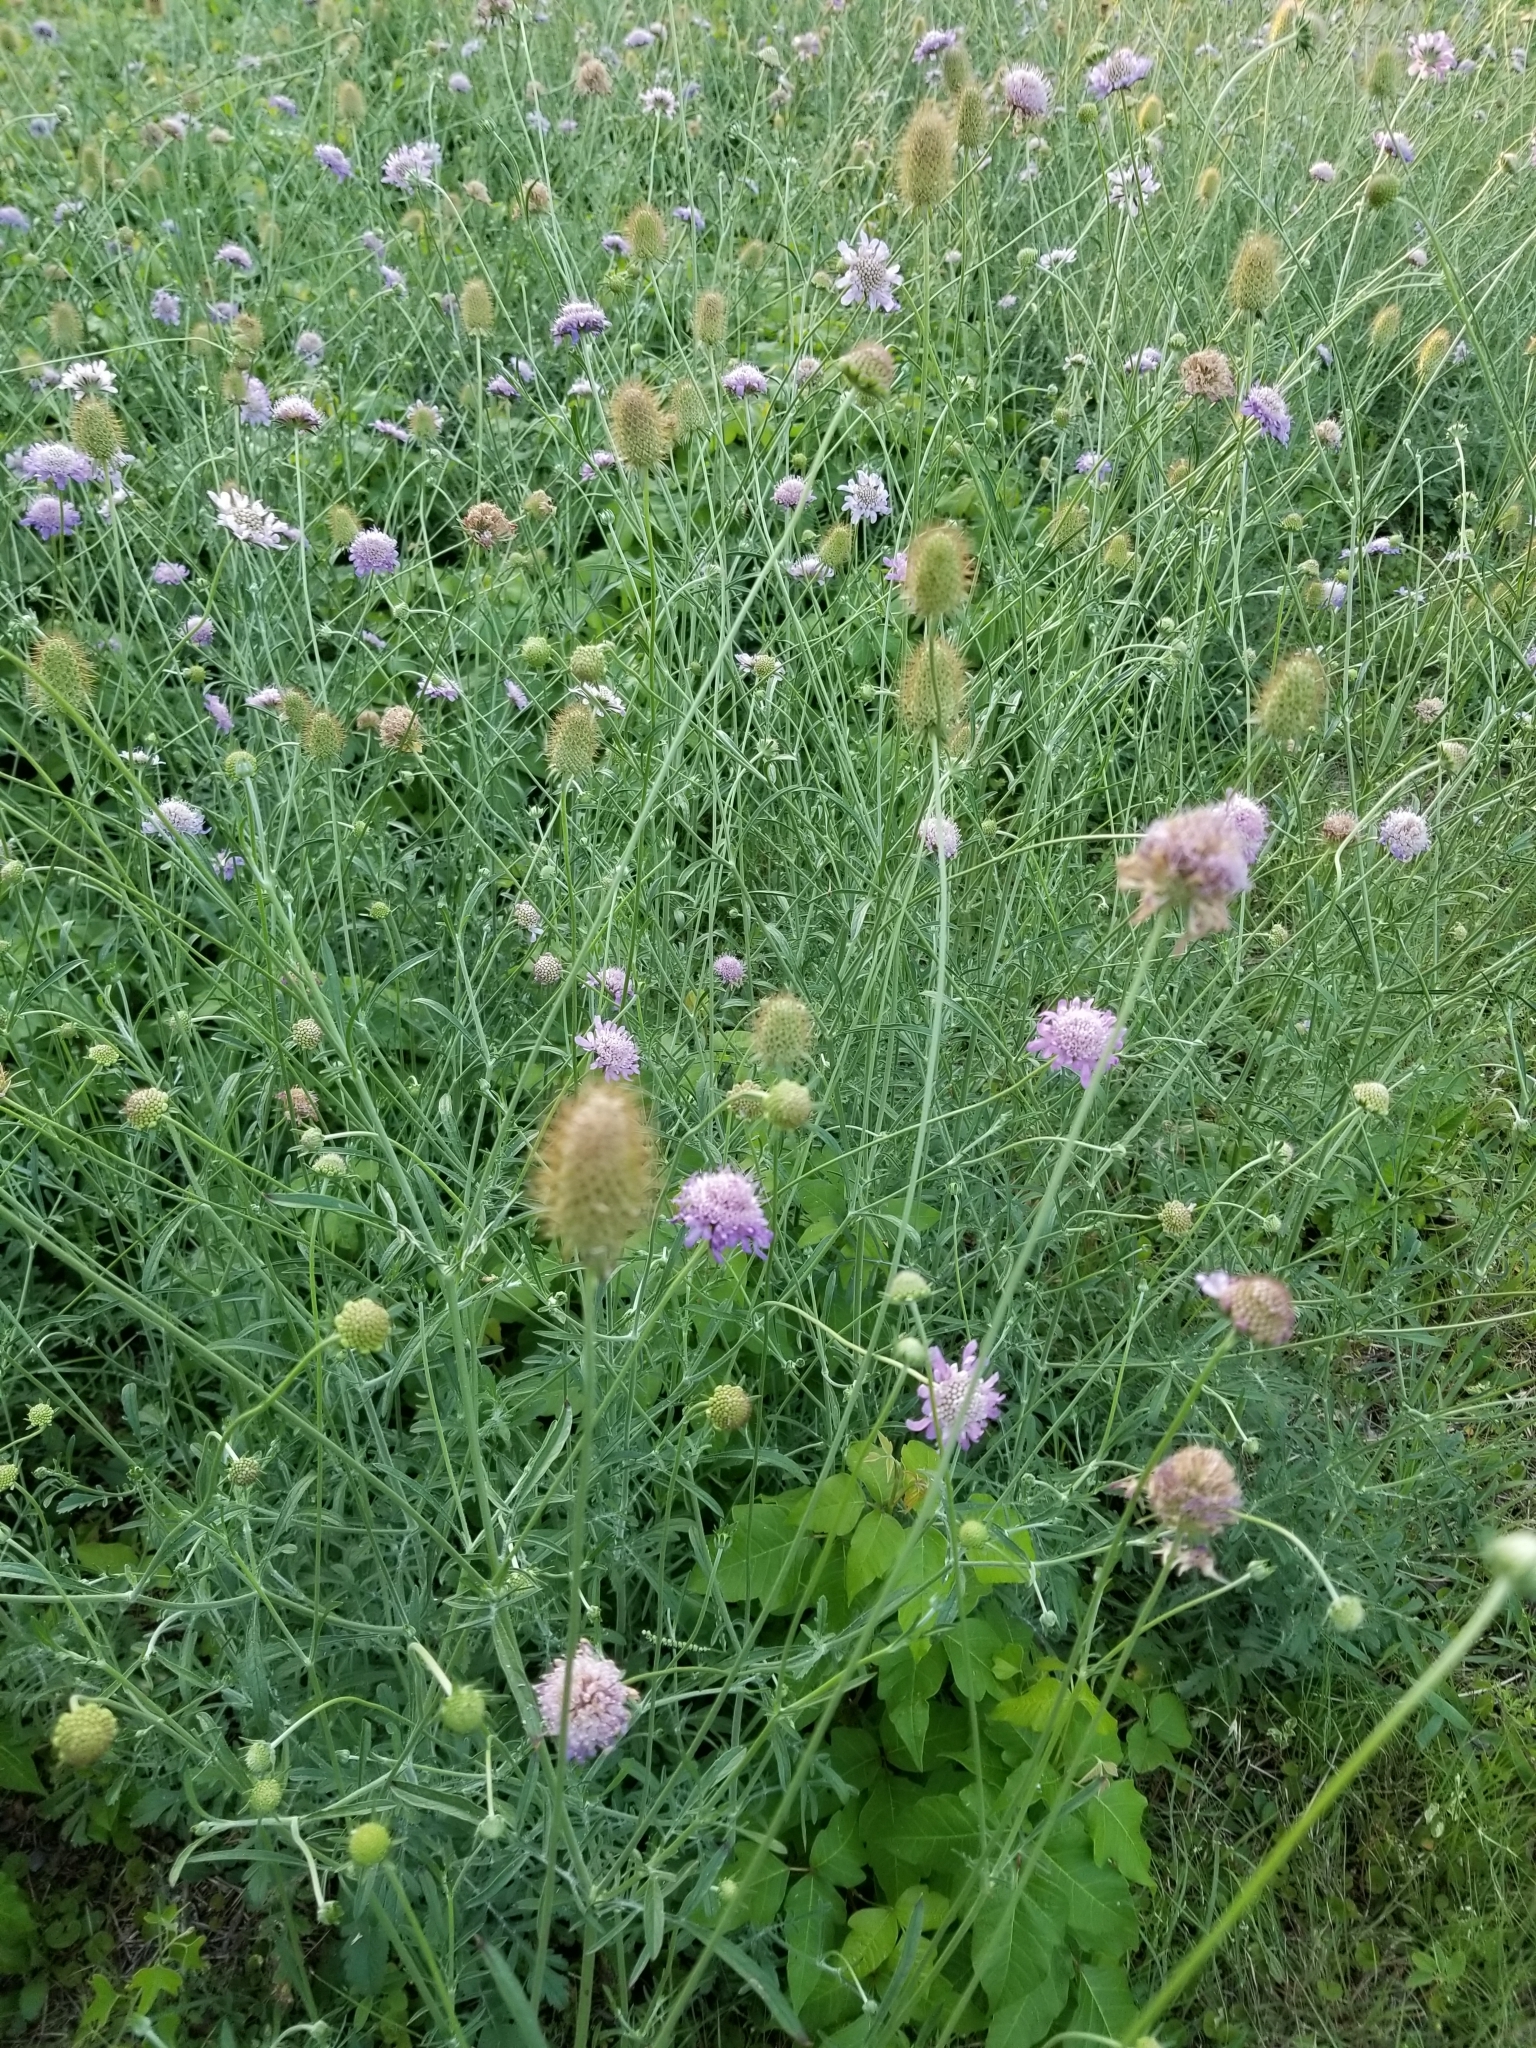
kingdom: Plantae
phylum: Tracheophyta
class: Magnoliopsida
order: Dipsacales
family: Caprifoliaceae
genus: Sixalix
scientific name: Sixalix atropurpurea
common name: Sweet scabious
